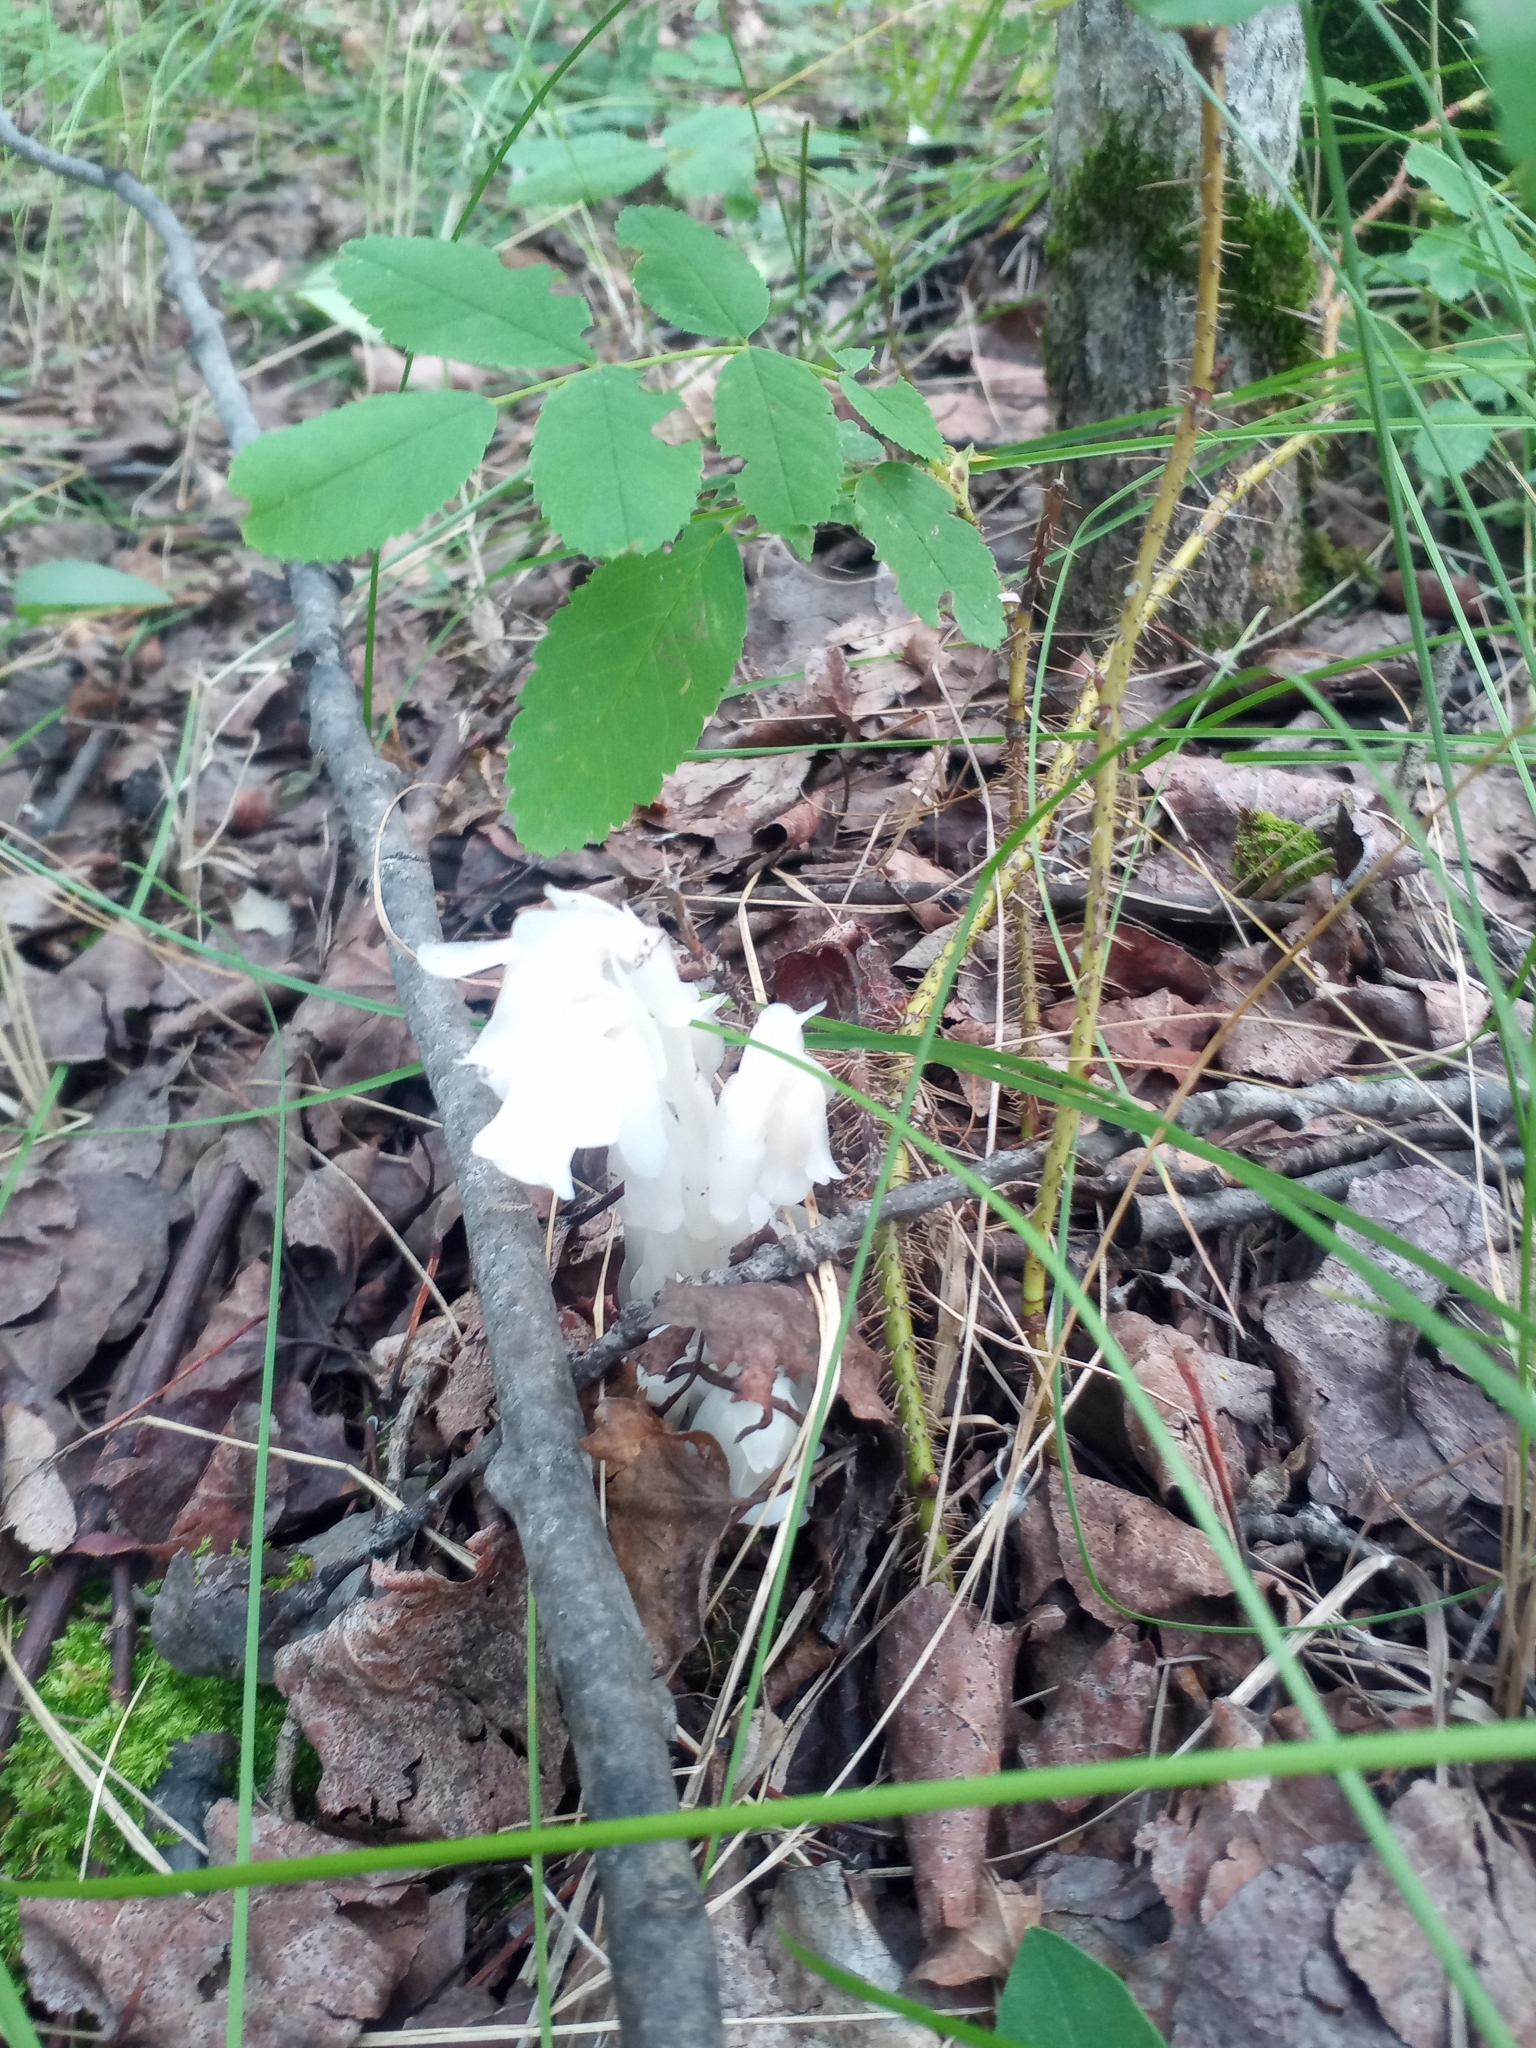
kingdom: Plantae
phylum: Tracheophyta
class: Magnoliopsida
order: Ericales
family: Ericaceae
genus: Monotropa
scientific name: Monotropa uniflora
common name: Convulsion root
